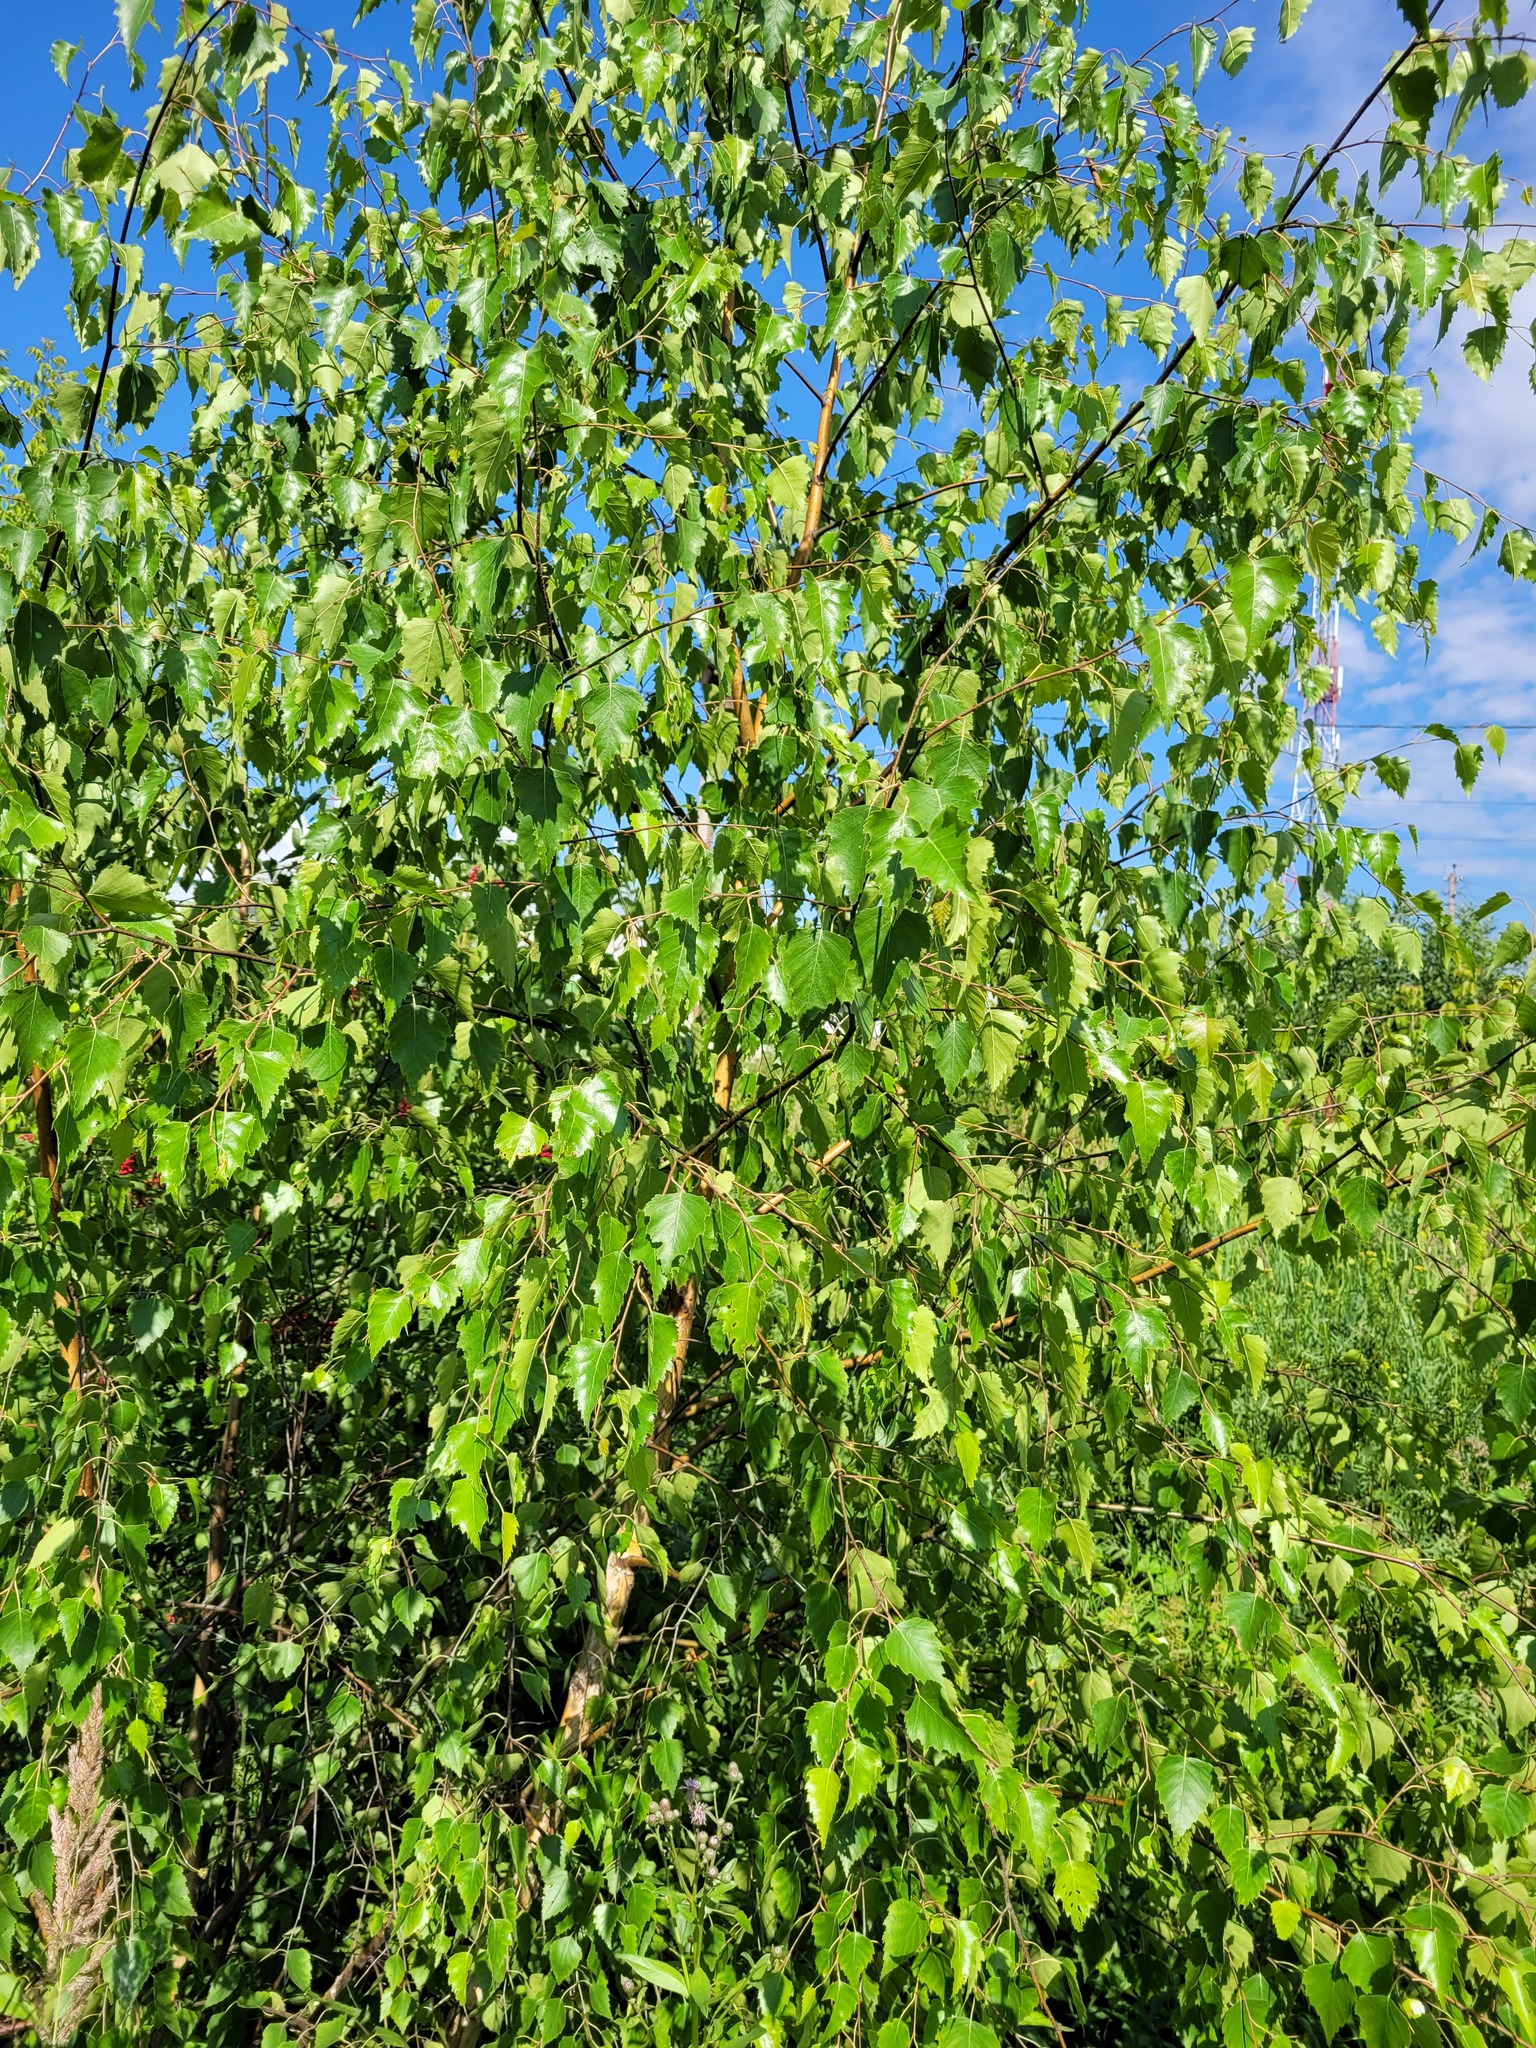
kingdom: Plantae
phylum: Tracheophyta
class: Magnoliopsida
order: Fagales
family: Betulaceae
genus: Betula
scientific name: Betula pendula
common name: Silver birch
